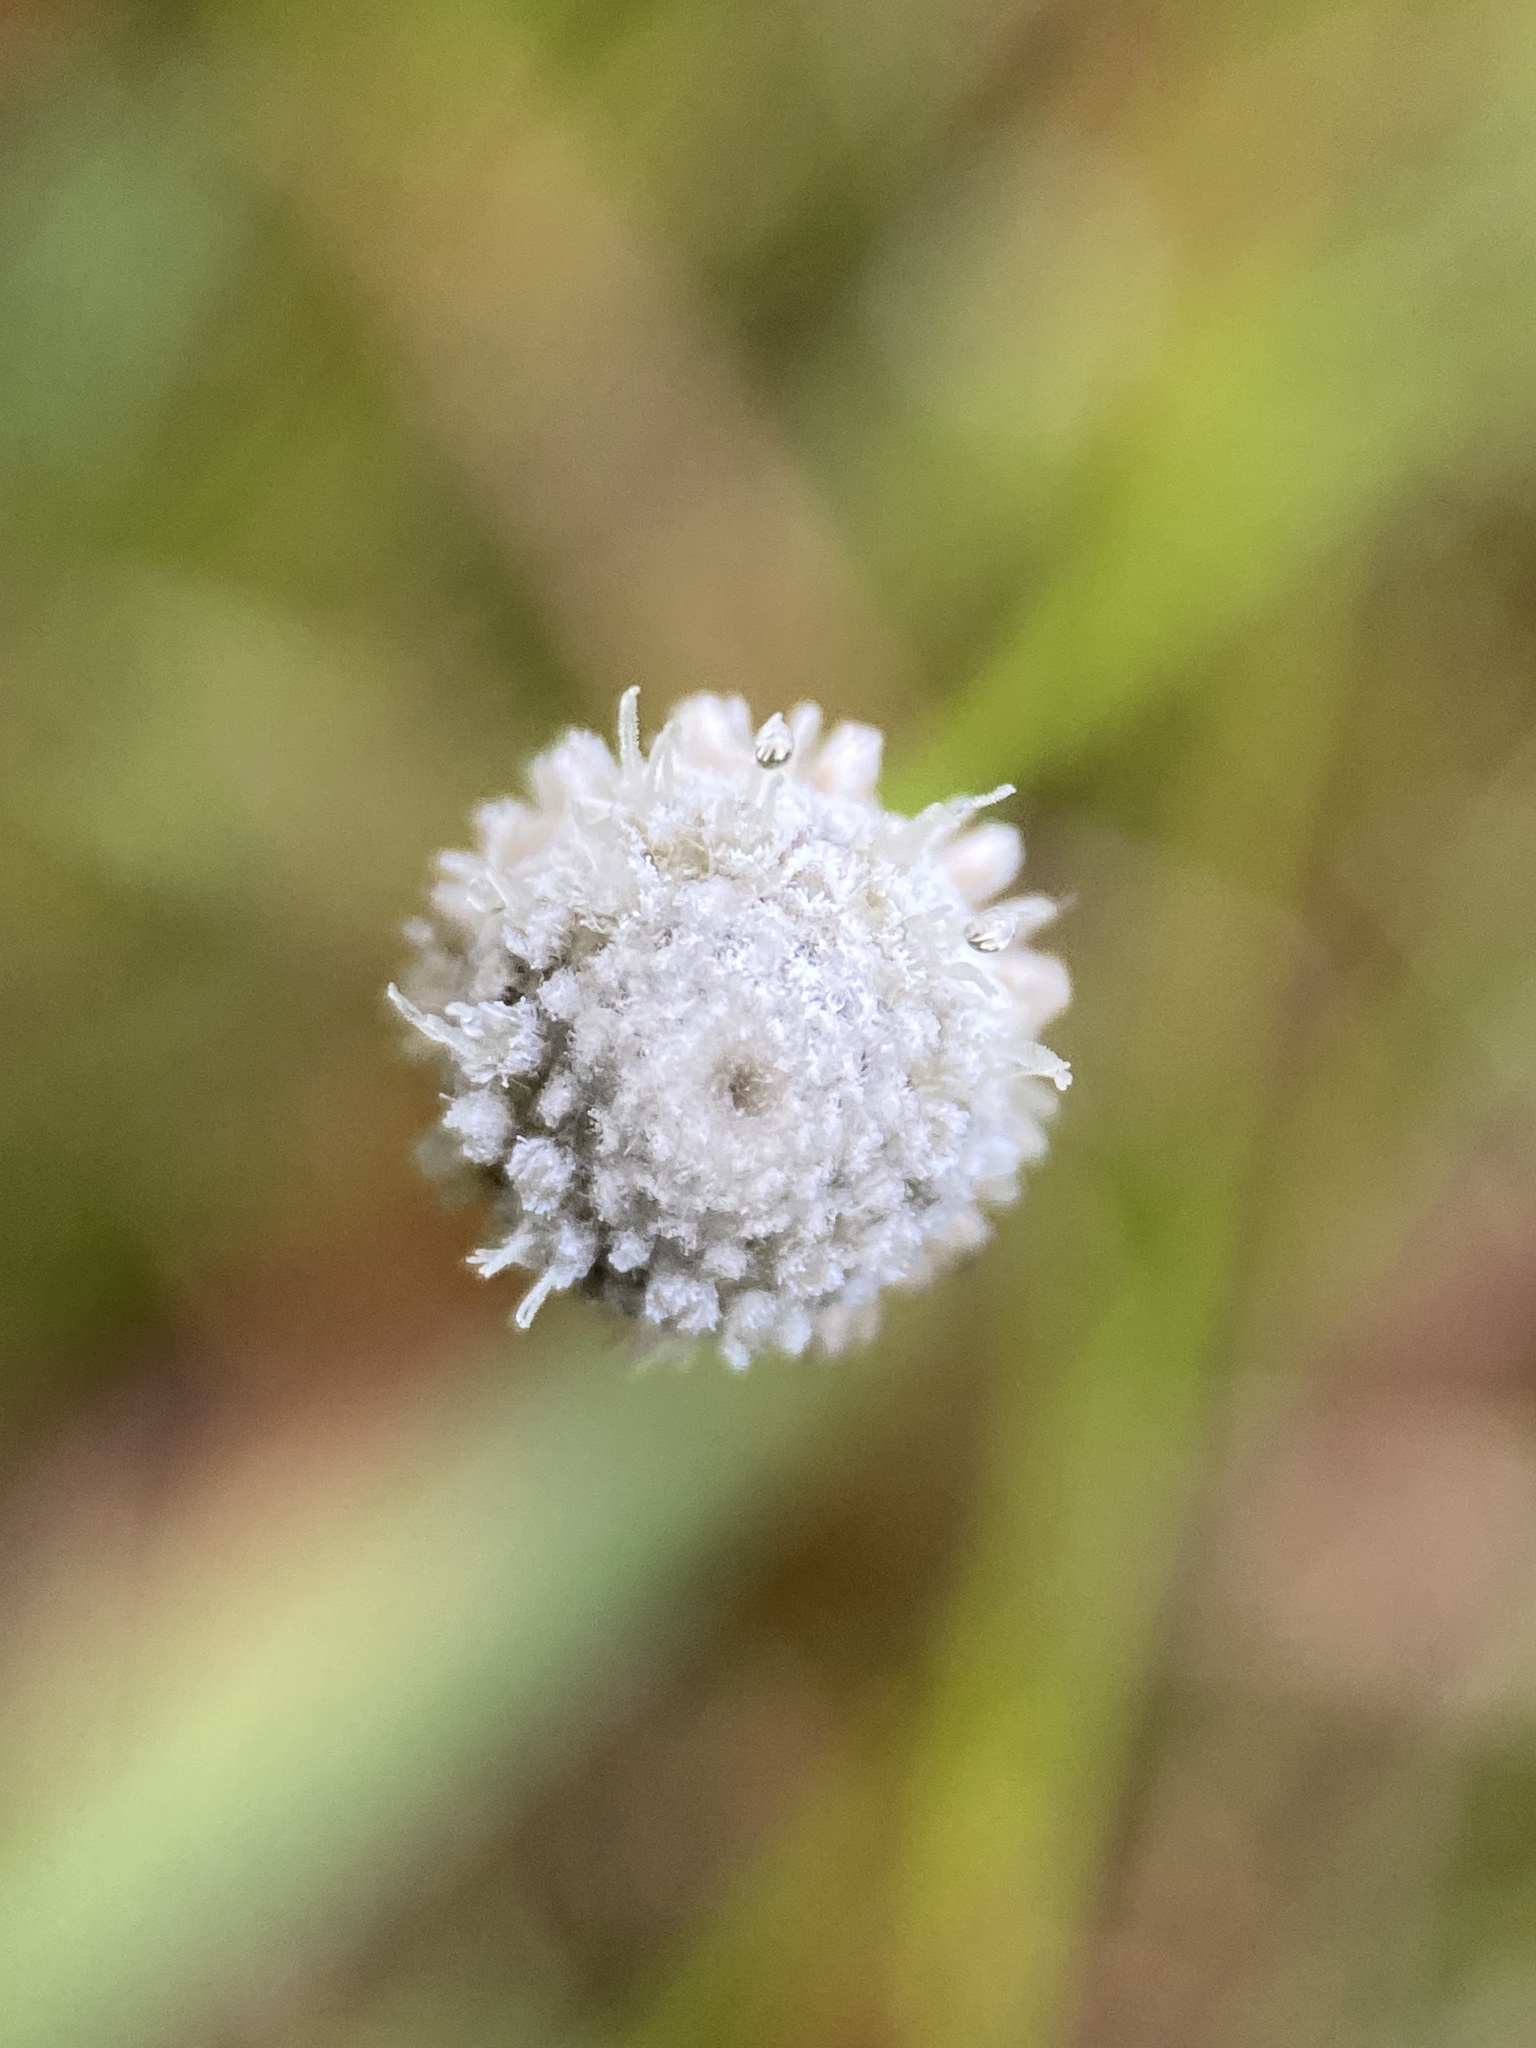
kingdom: Plantae
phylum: Tracheophyta
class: Liliopsida
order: Poales
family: Eriocaulaceae
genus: Paepalanthus
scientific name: Paepalanthus anceps
